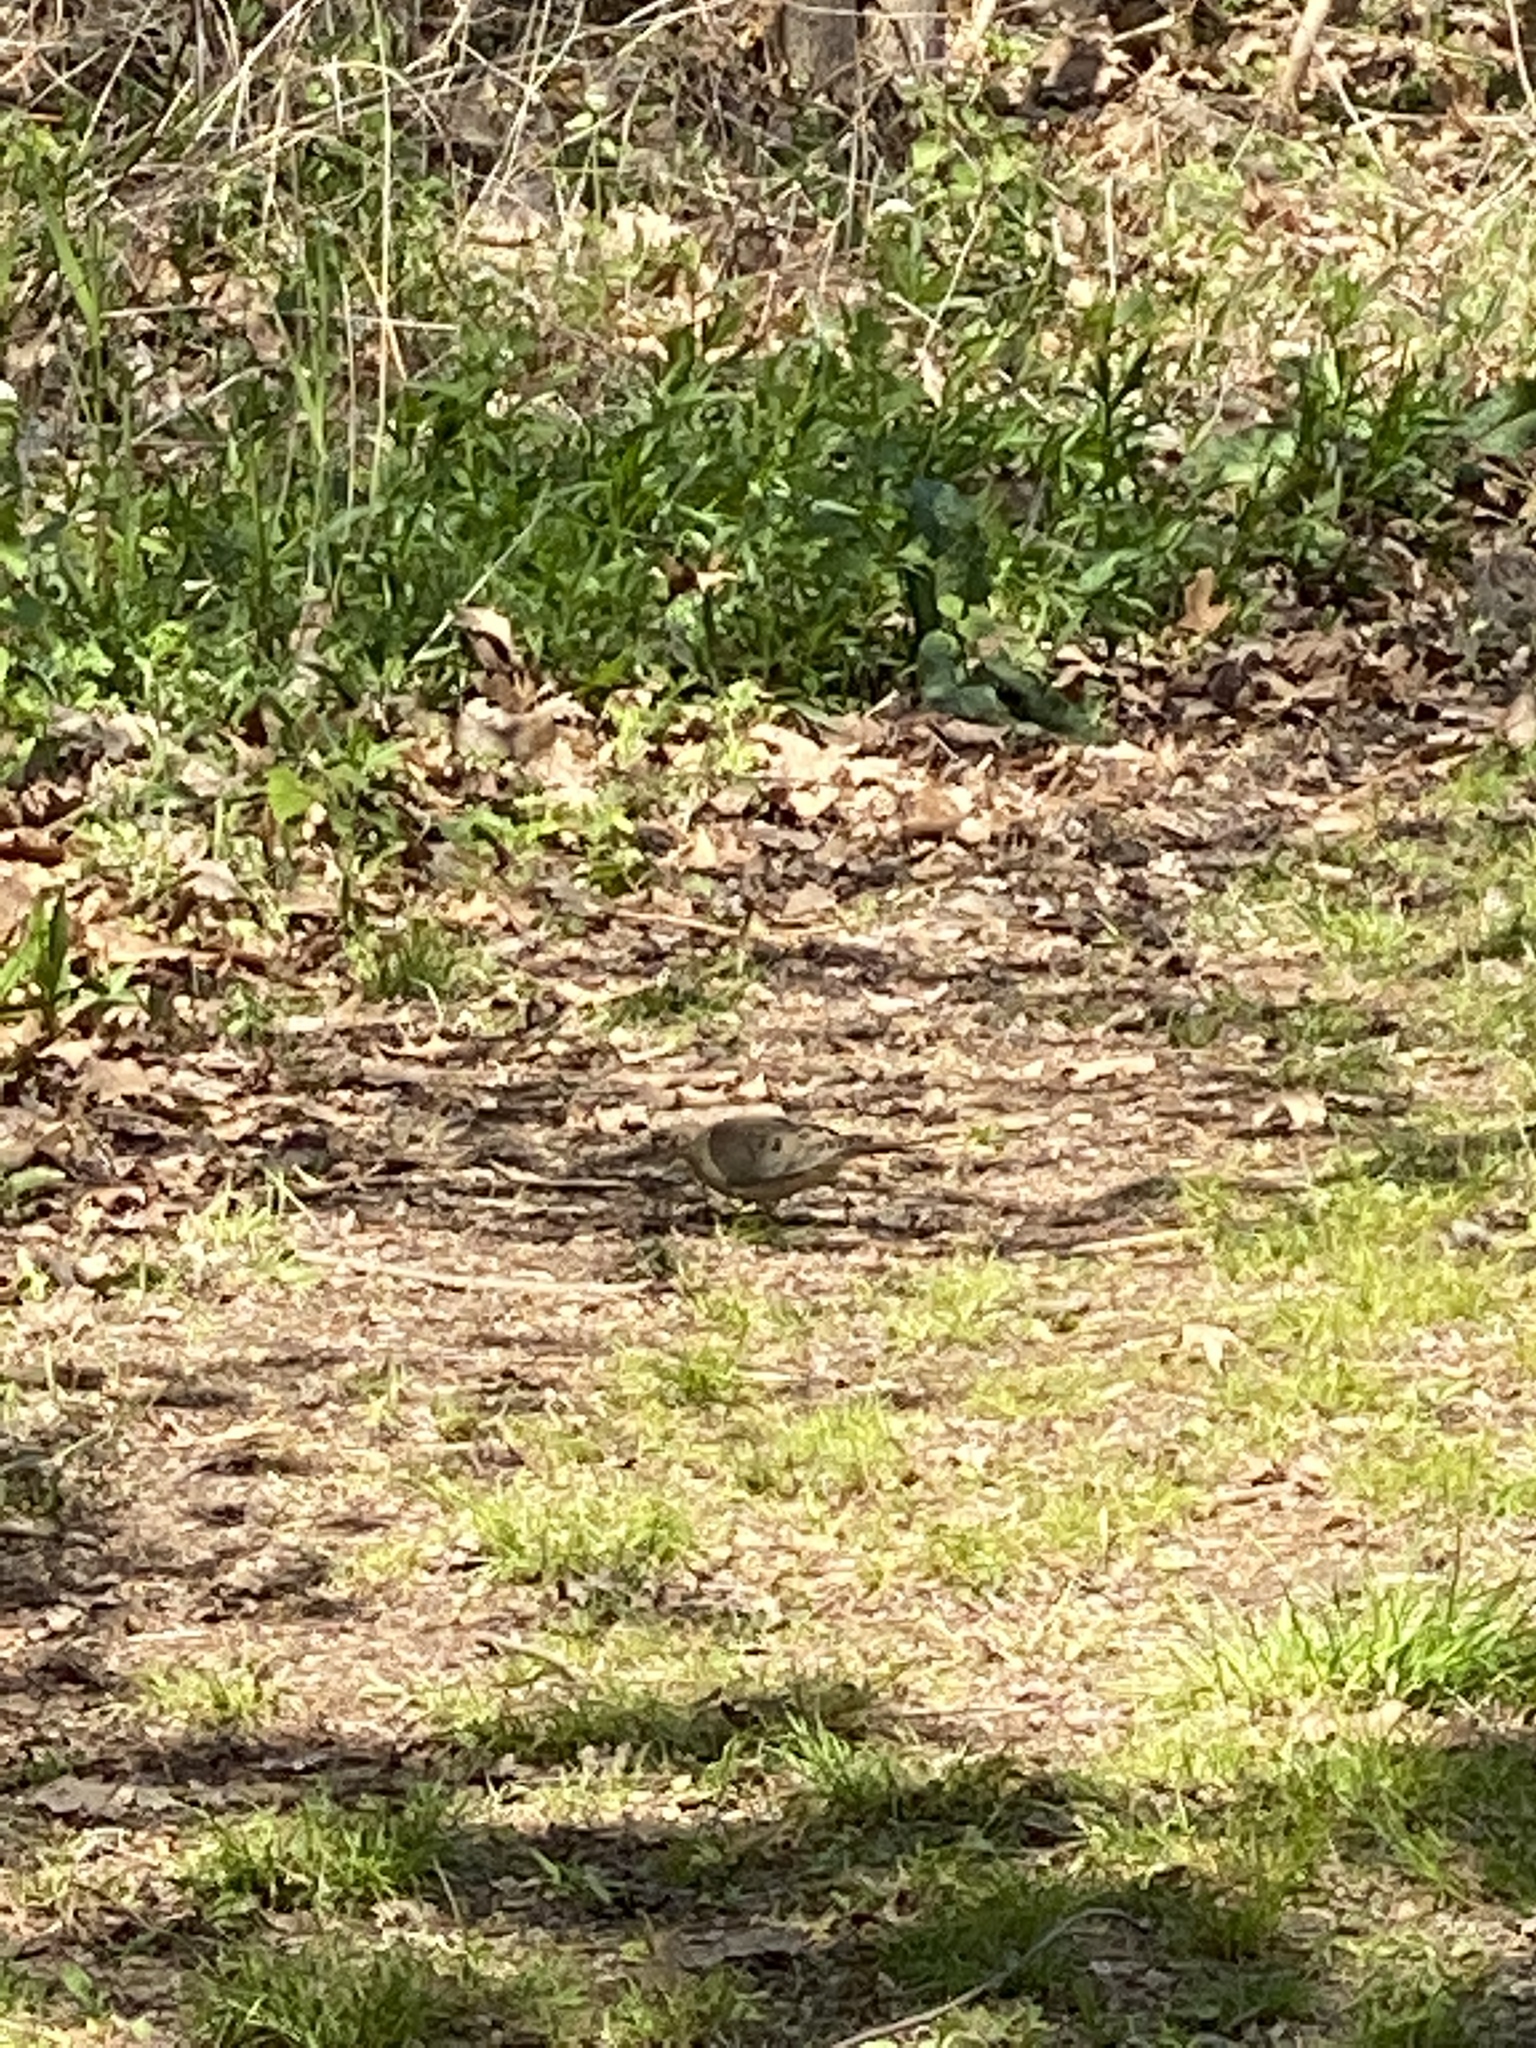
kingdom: Animalia
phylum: Chordata
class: Aves
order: Columbiformes
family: Columbidae
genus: Zenaida
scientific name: Zenaida macroura
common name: Mourning dove
